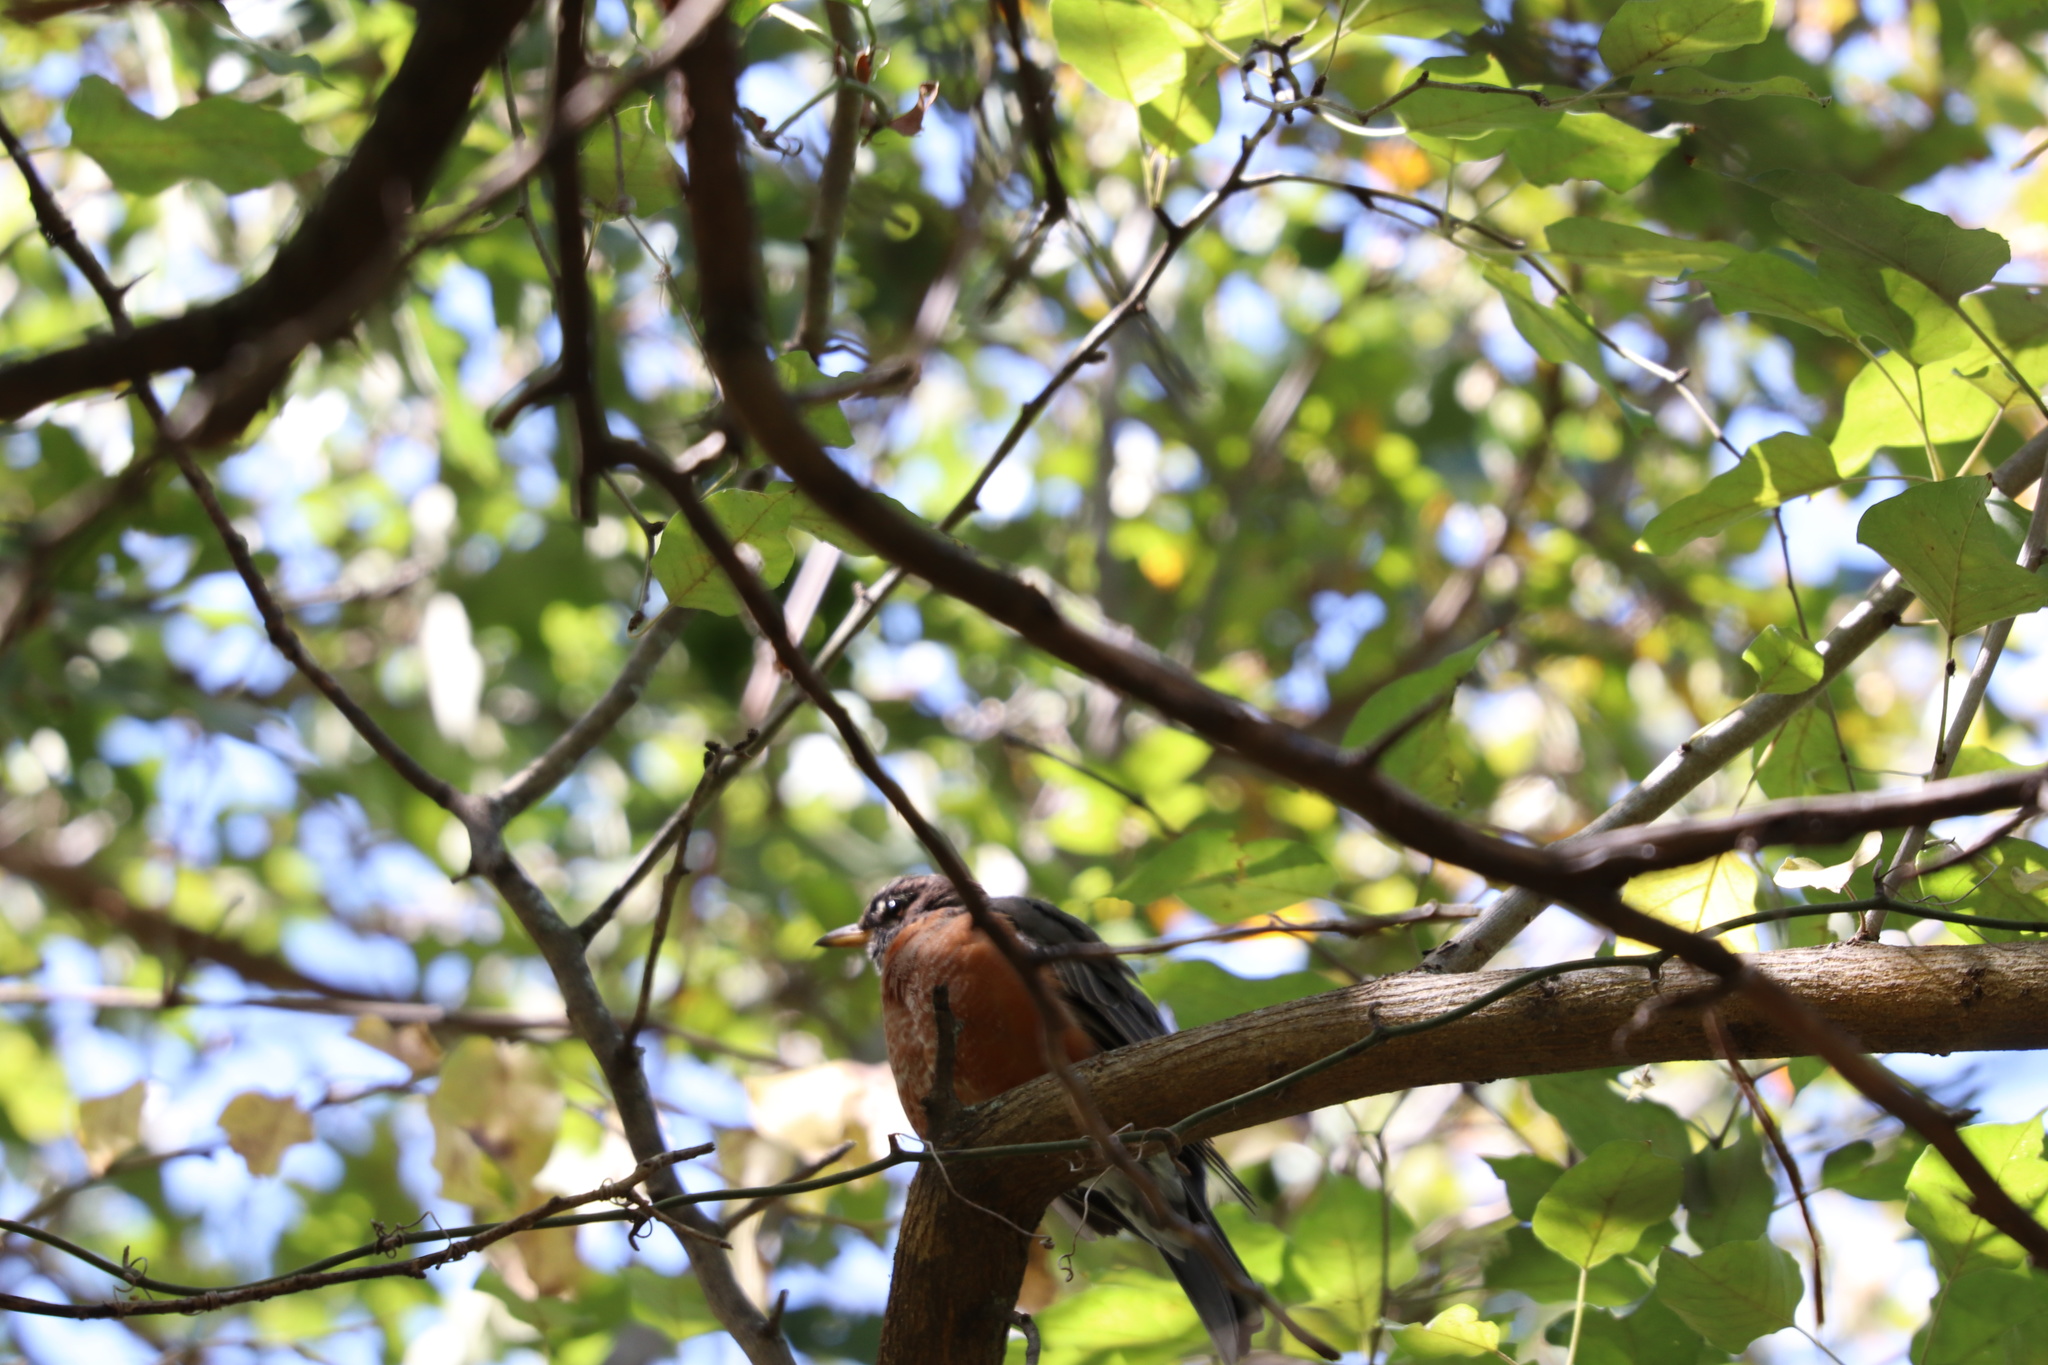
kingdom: Animalia
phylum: Chordata
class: Aves
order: Passeriformes
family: Turdidae
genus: Turdus
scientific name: Turdus migratorius
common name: American robin
